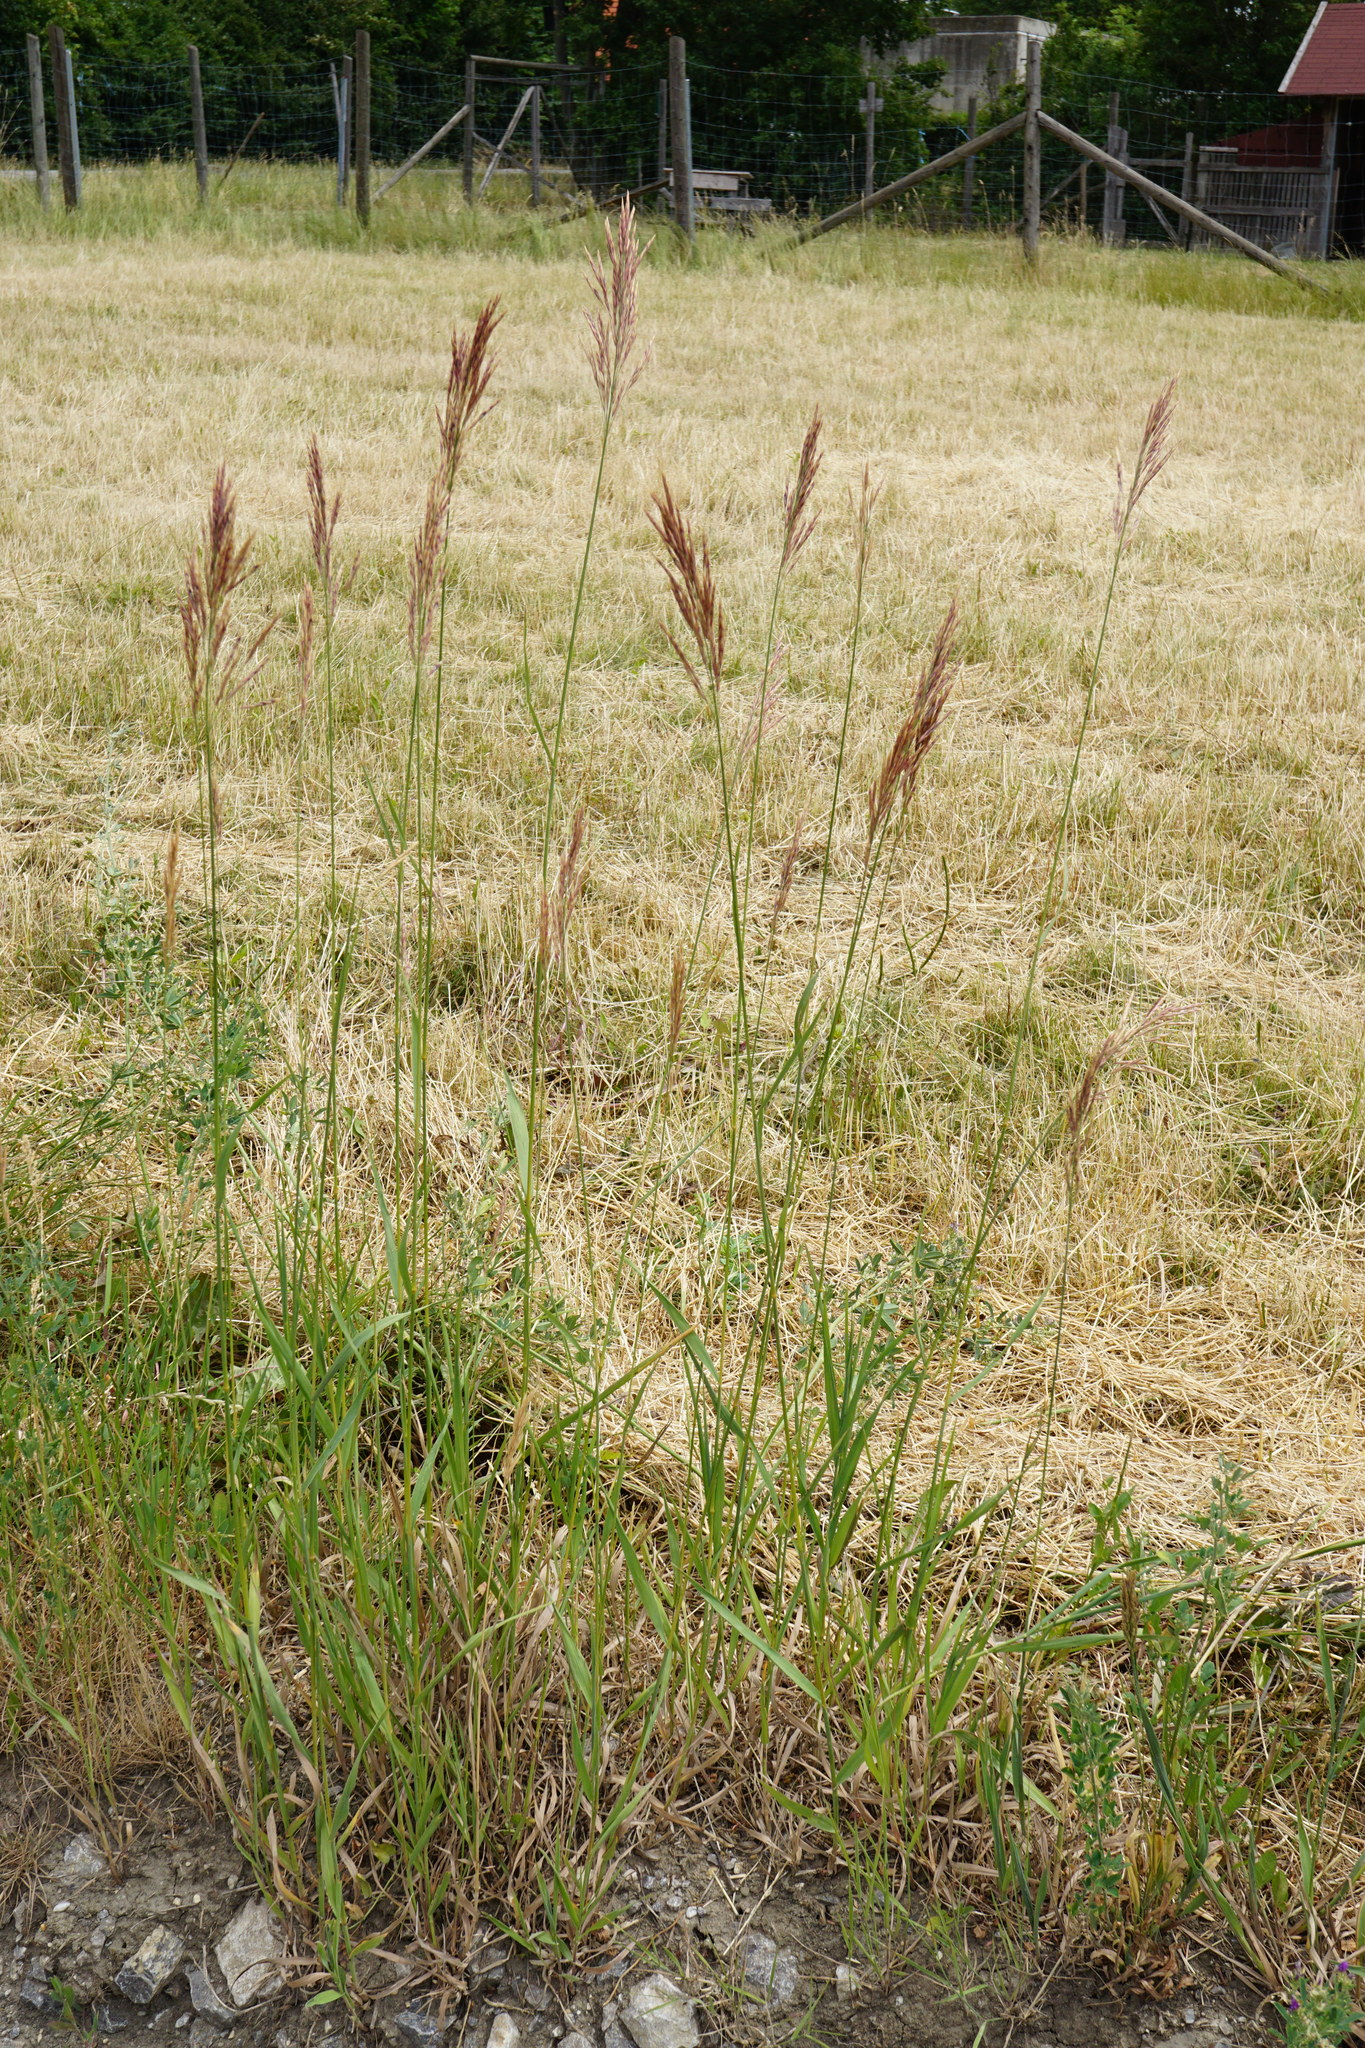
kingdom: Plantae
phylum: Tracheophyta
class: Liliopsida
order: Poales
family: Poaceae
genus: Bromus
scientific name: Bromus inermis
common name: Smooth brome
